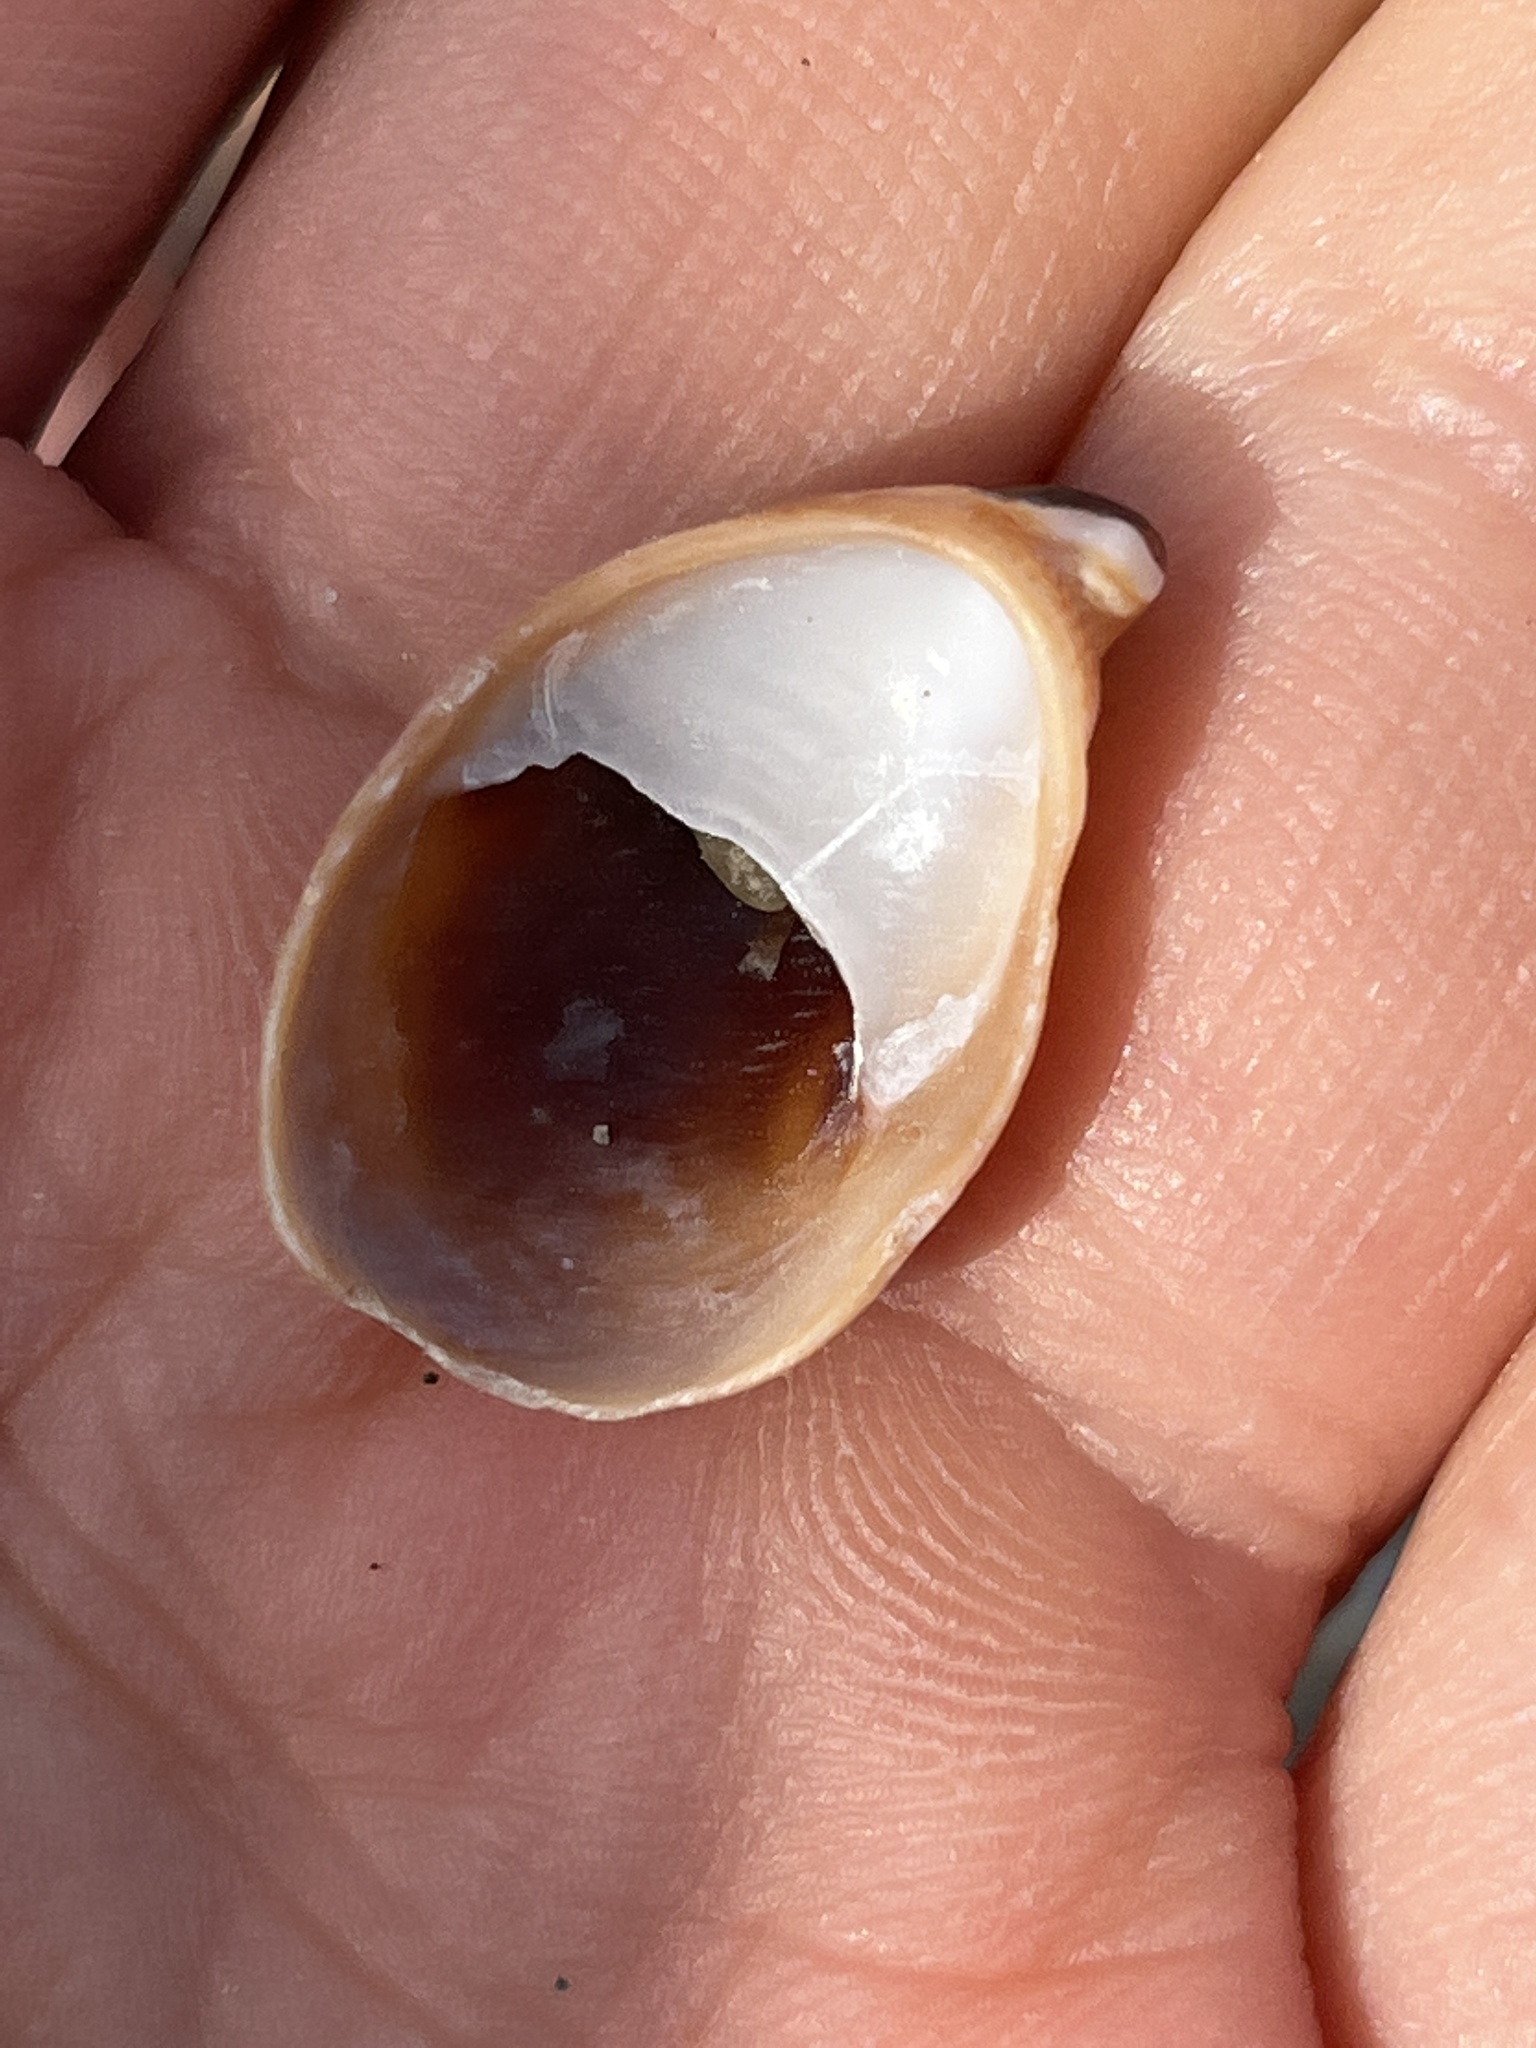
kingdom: Animalia
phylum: Mollusca
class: Gastropoda
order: Littorinimorpha
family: Calyptraeidae
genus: Crepidula
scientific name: Crepidula onyx
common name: Onyx slippersnail
